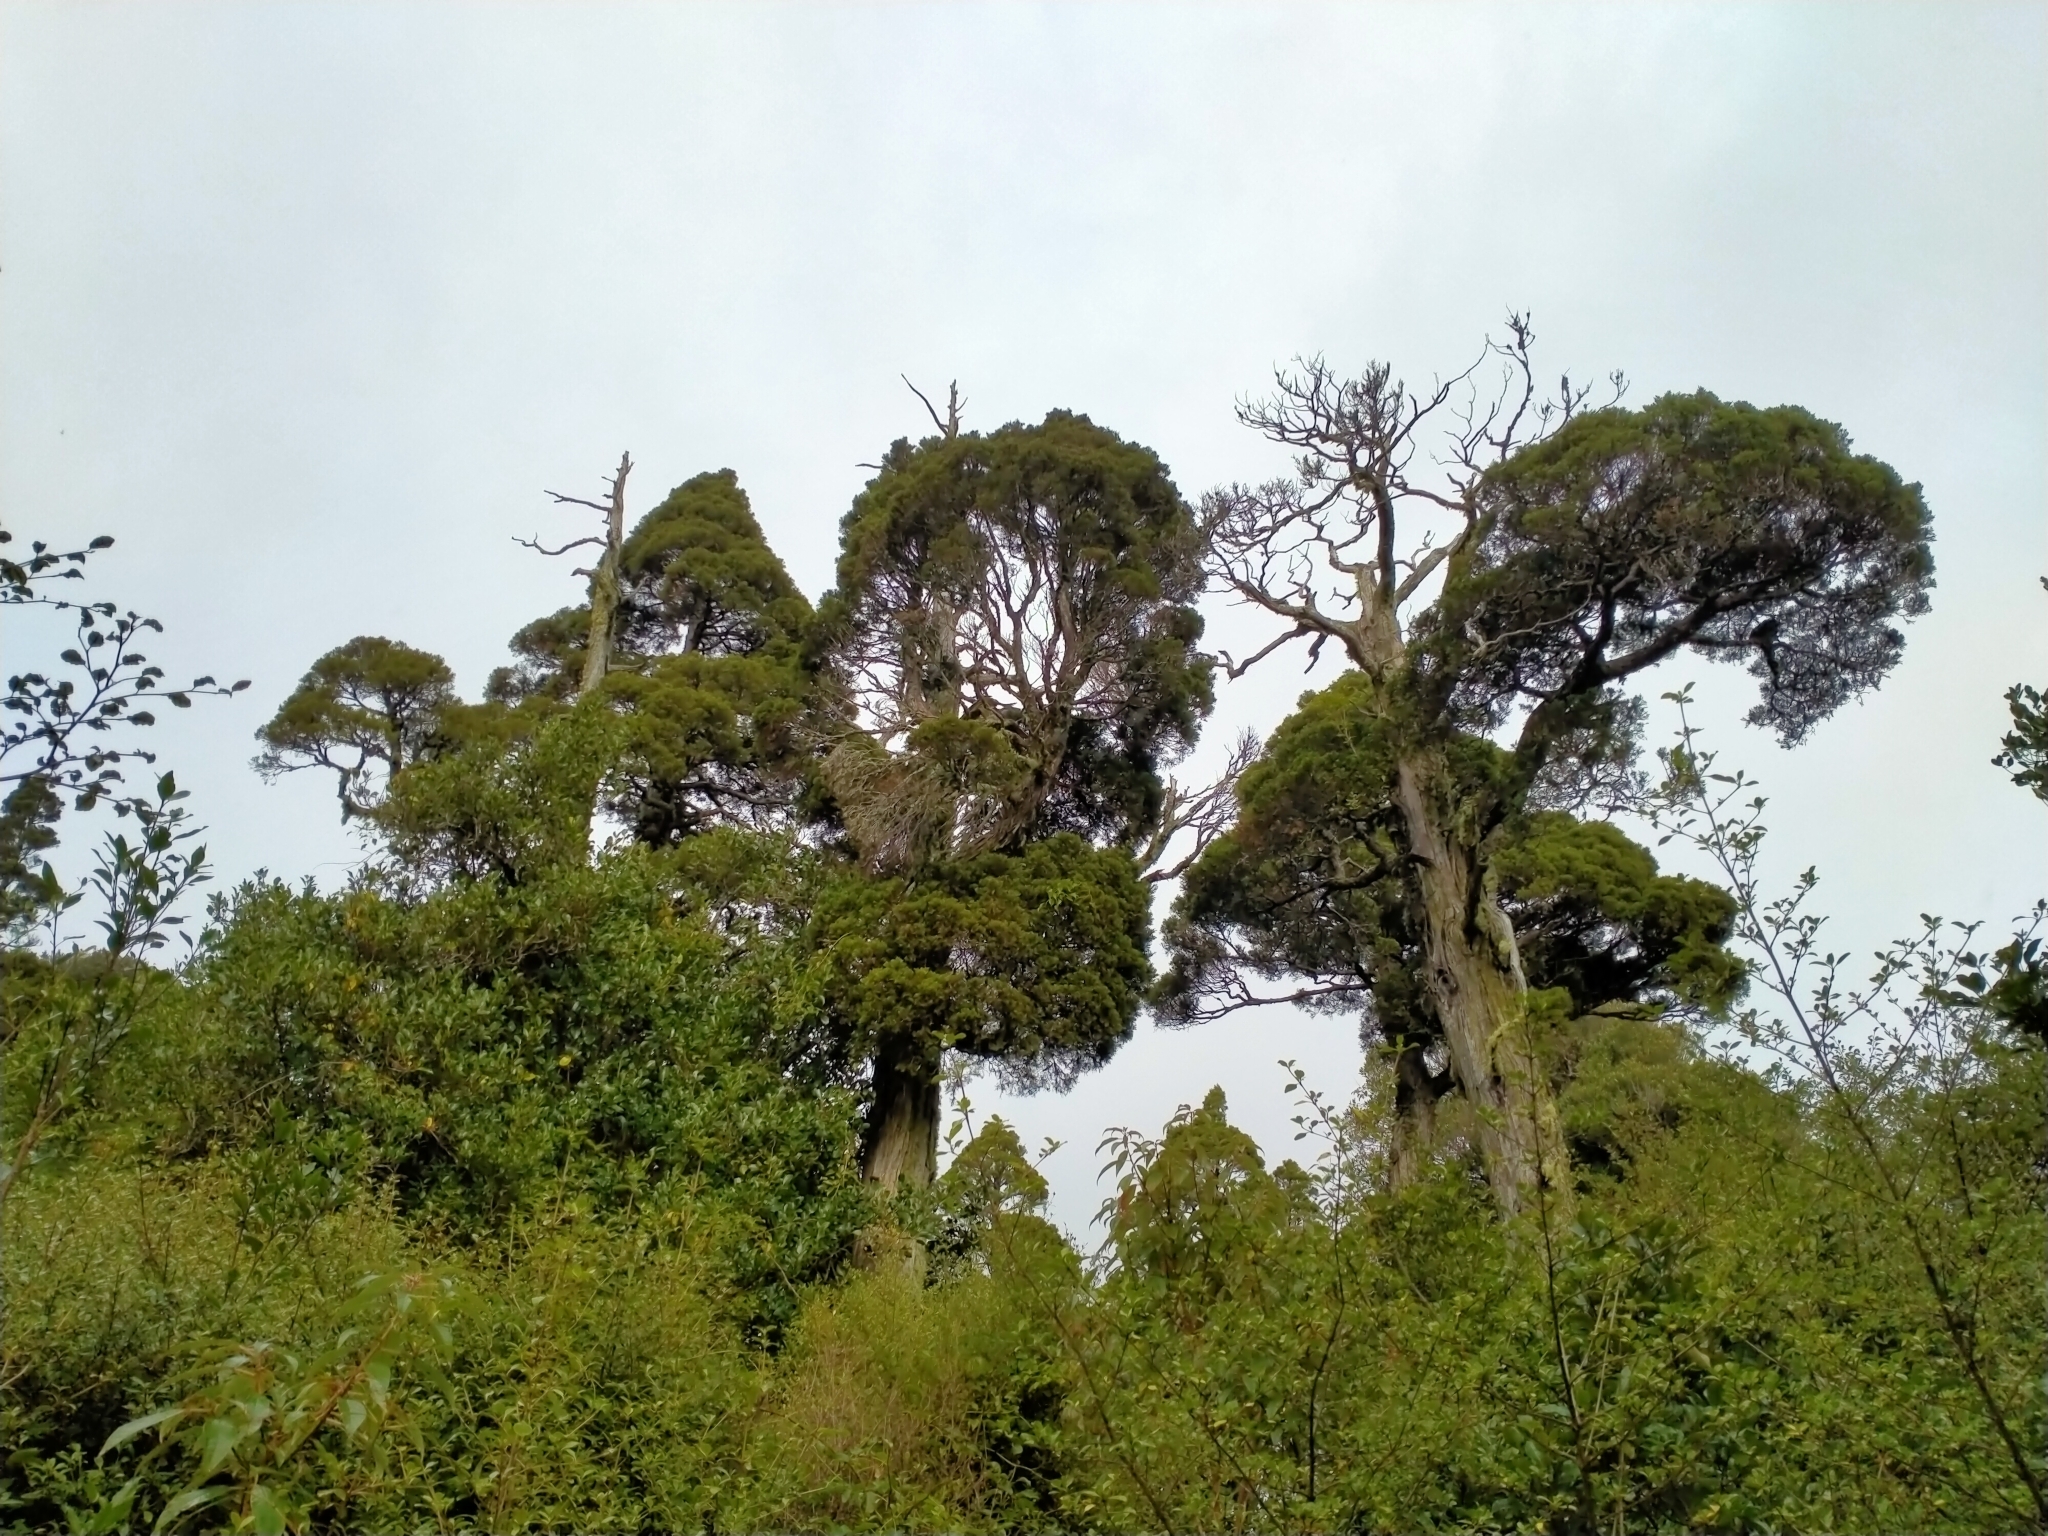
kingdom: Plantae
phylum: Tracheophyta
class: Pinopsida
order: Pinales
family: Cupressaceae
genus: Libocedrus
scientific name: Libocedrus bidwillii
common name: Cedar
